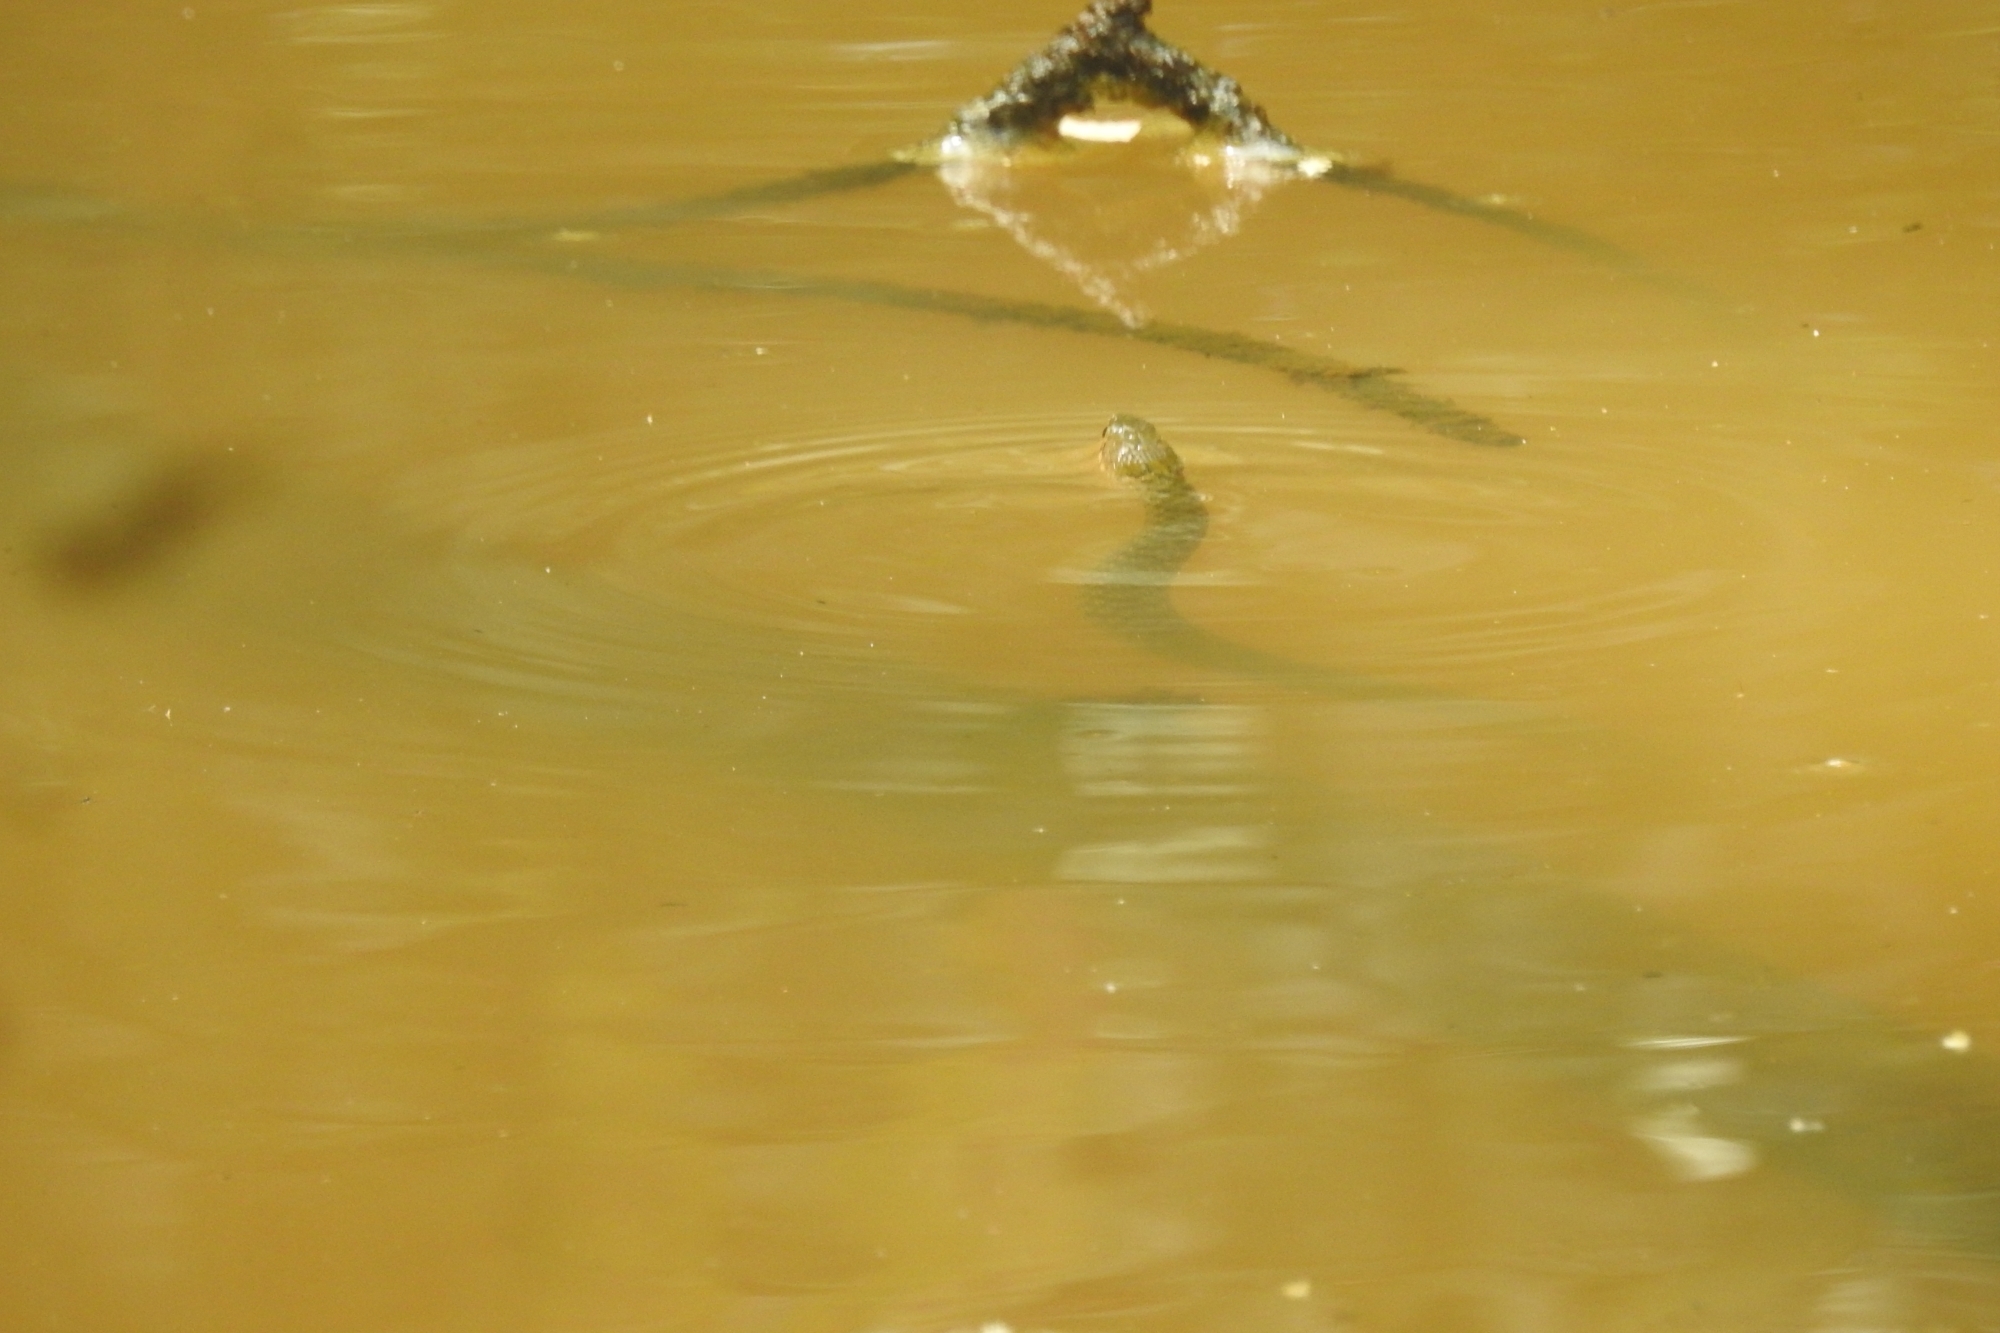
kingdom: Animalia
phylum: Chordata
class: Squamata
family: Colubridae
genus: Fowlea
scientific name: Fowlea piscator
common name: Asiatic water snake
